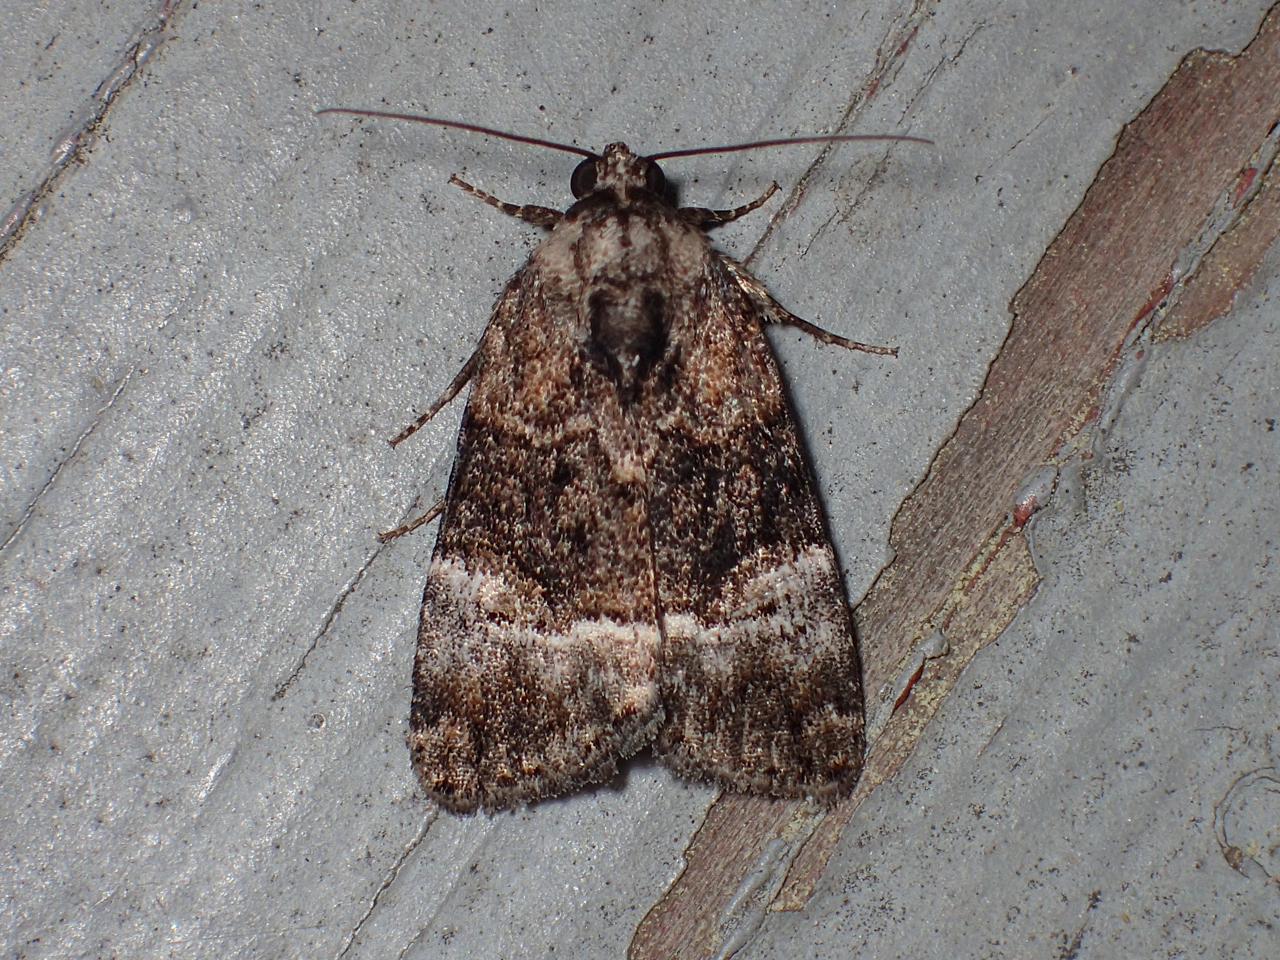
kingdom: Animalia
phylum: Arthropoda
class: Insecta
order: Lepidoptera
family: Noctuidae
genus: Elaphria
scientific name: Elaphria georgei
